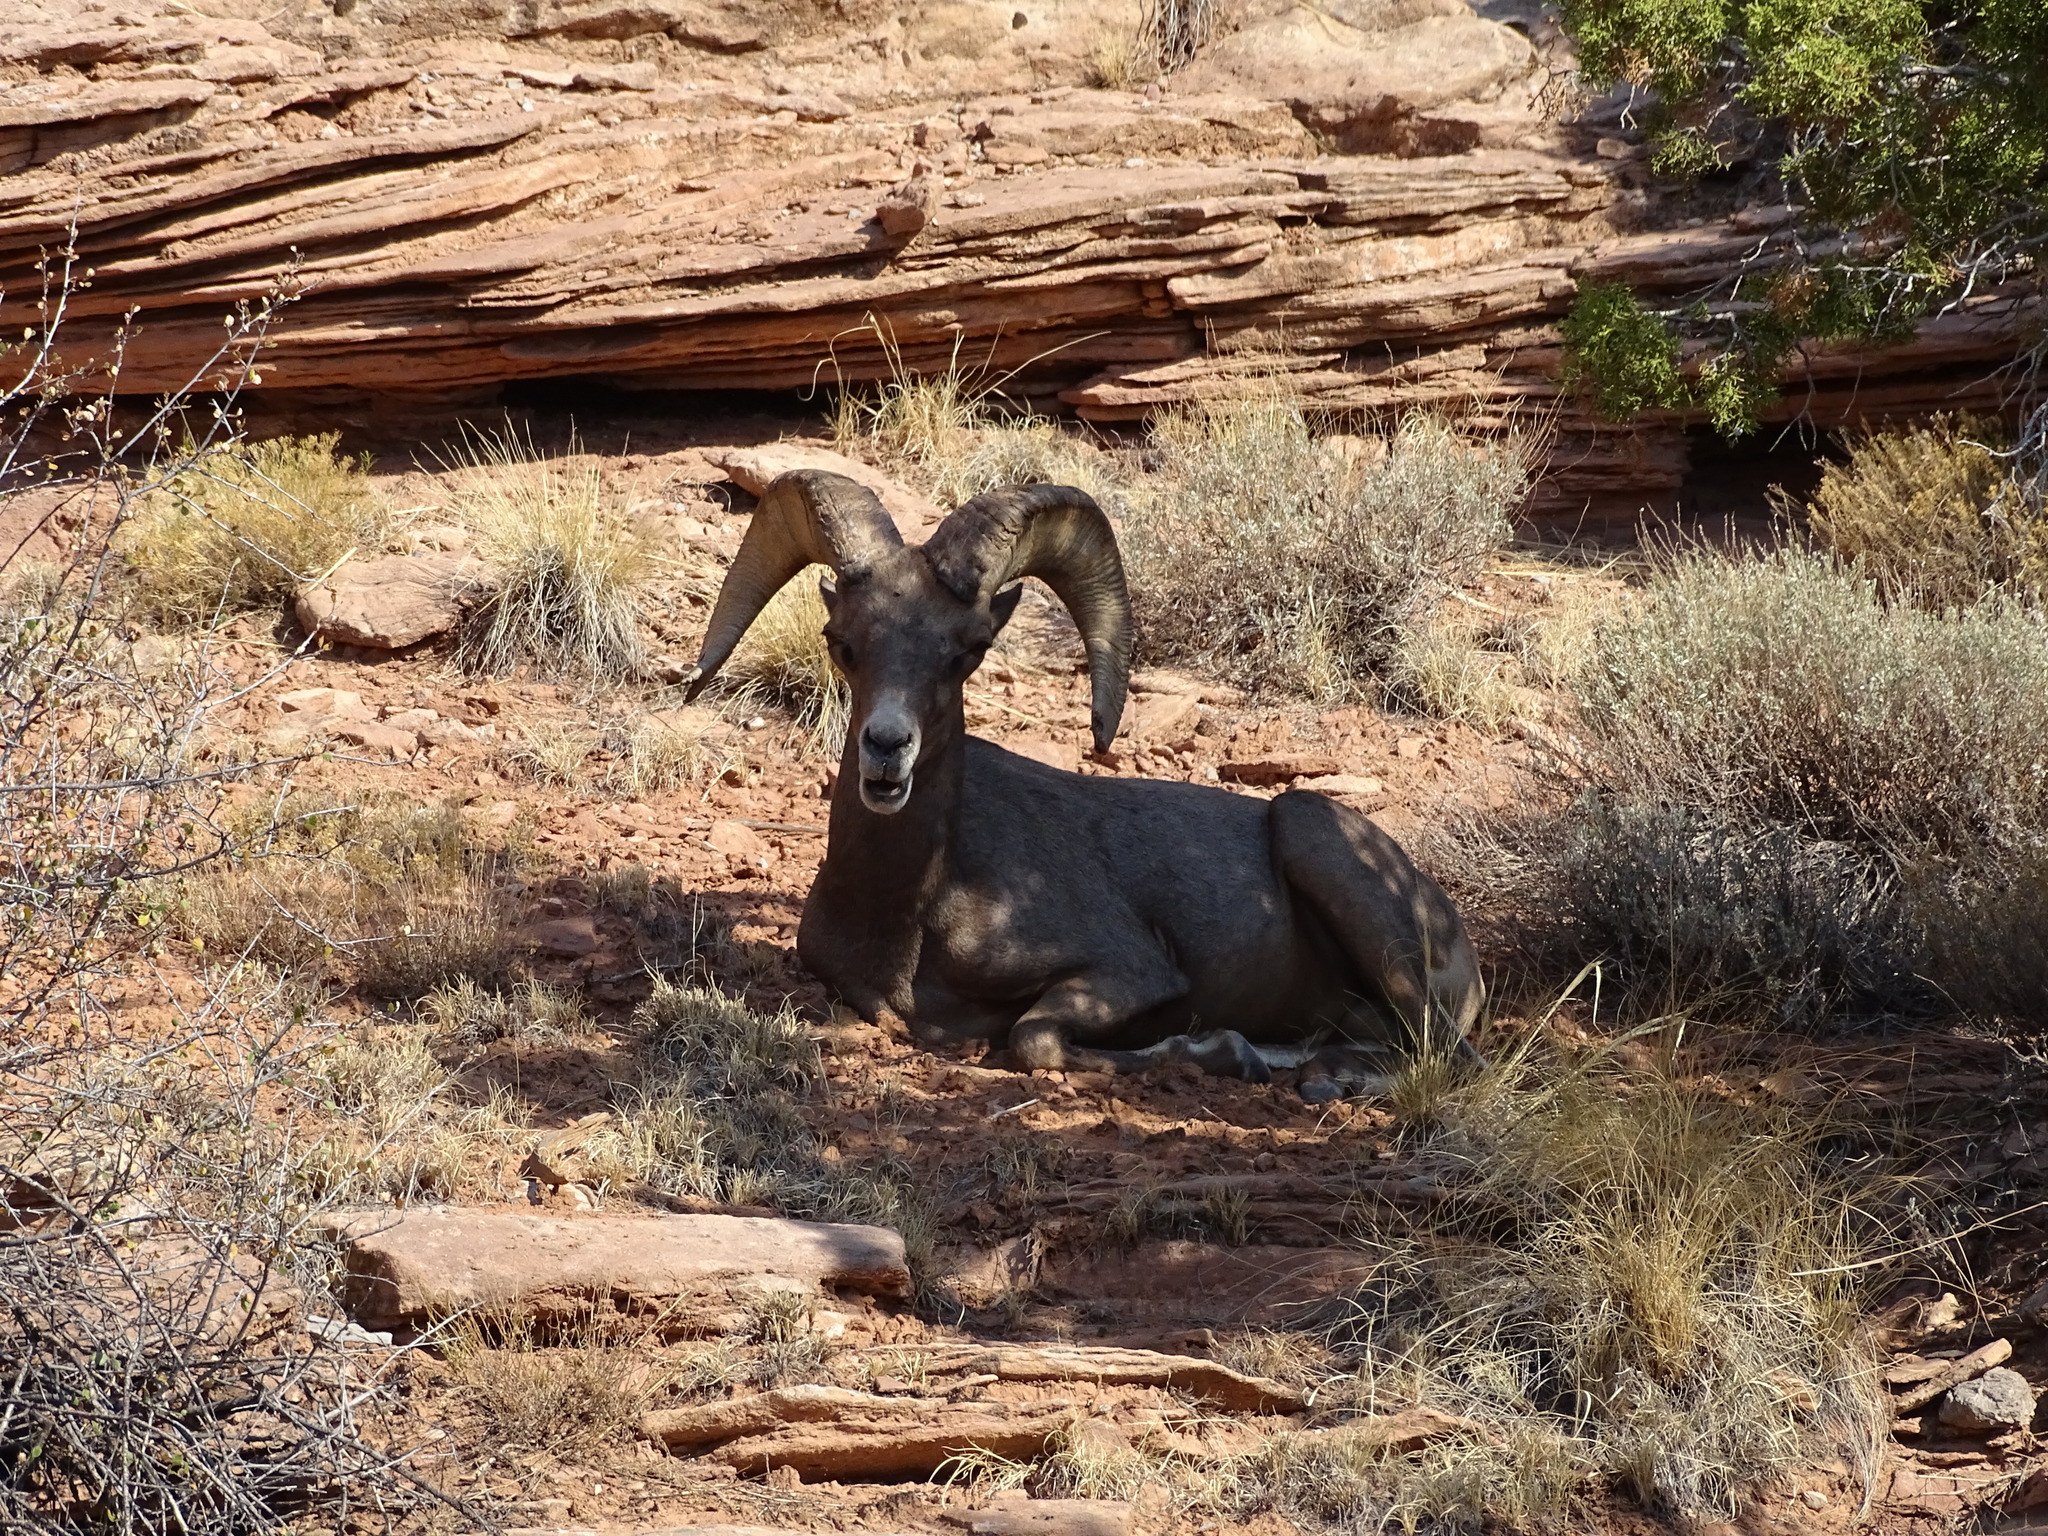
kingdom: Animalia
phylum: Chordata
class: Mammalia
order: Artiodactyla
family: Bovidae
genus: Ovis
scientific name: Ovis canadensis
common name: Bighorn sheep
